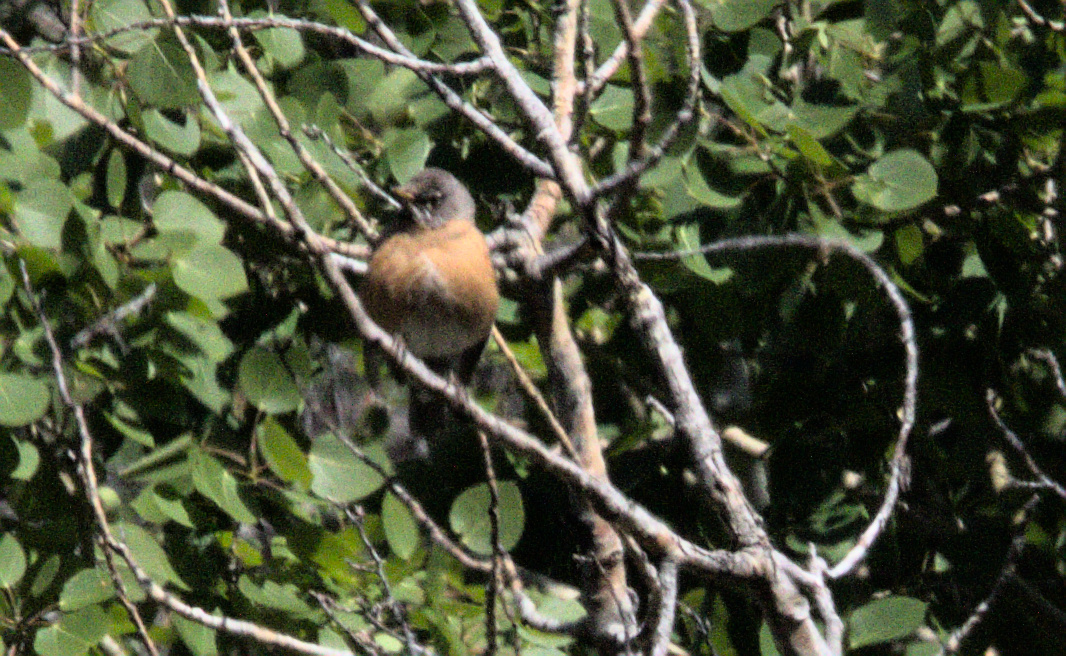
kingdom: Animalia
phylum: Chordata
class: Aves
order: Passeriformes
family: Turdidae
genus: Turdus
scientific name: Turdus migratorius
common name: American robin
